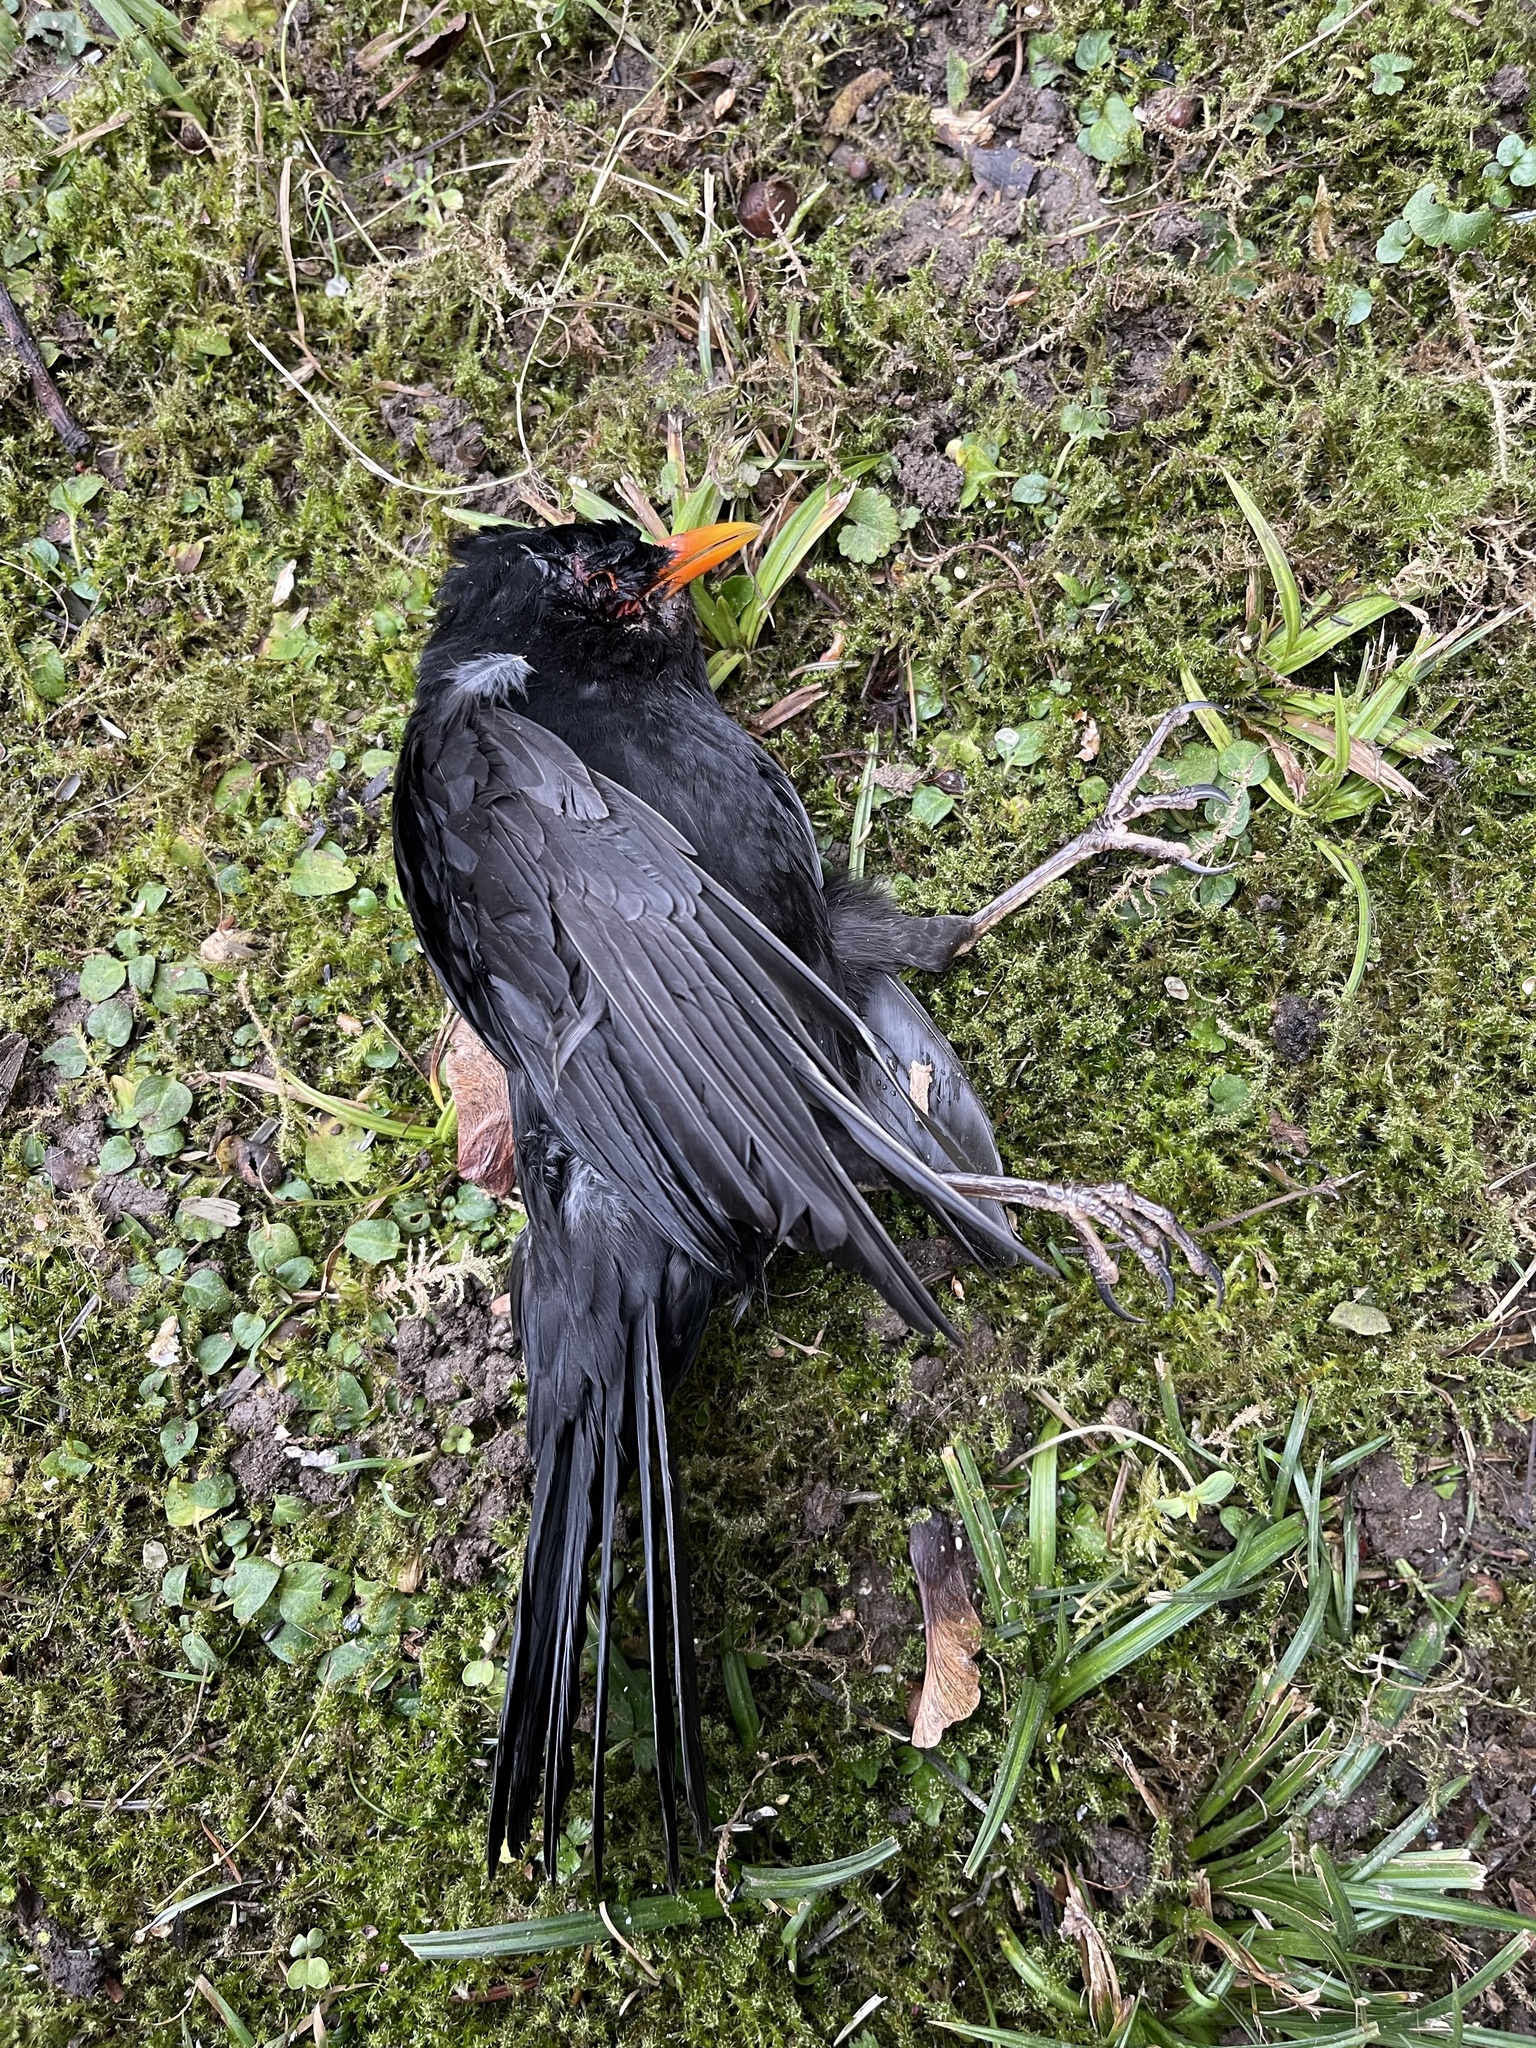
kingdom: Animalia
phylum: Chordata
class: Aves
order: Passeriformes
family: Turdidae
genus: Turdus
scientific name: Turdus merula
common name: Common blackbird
